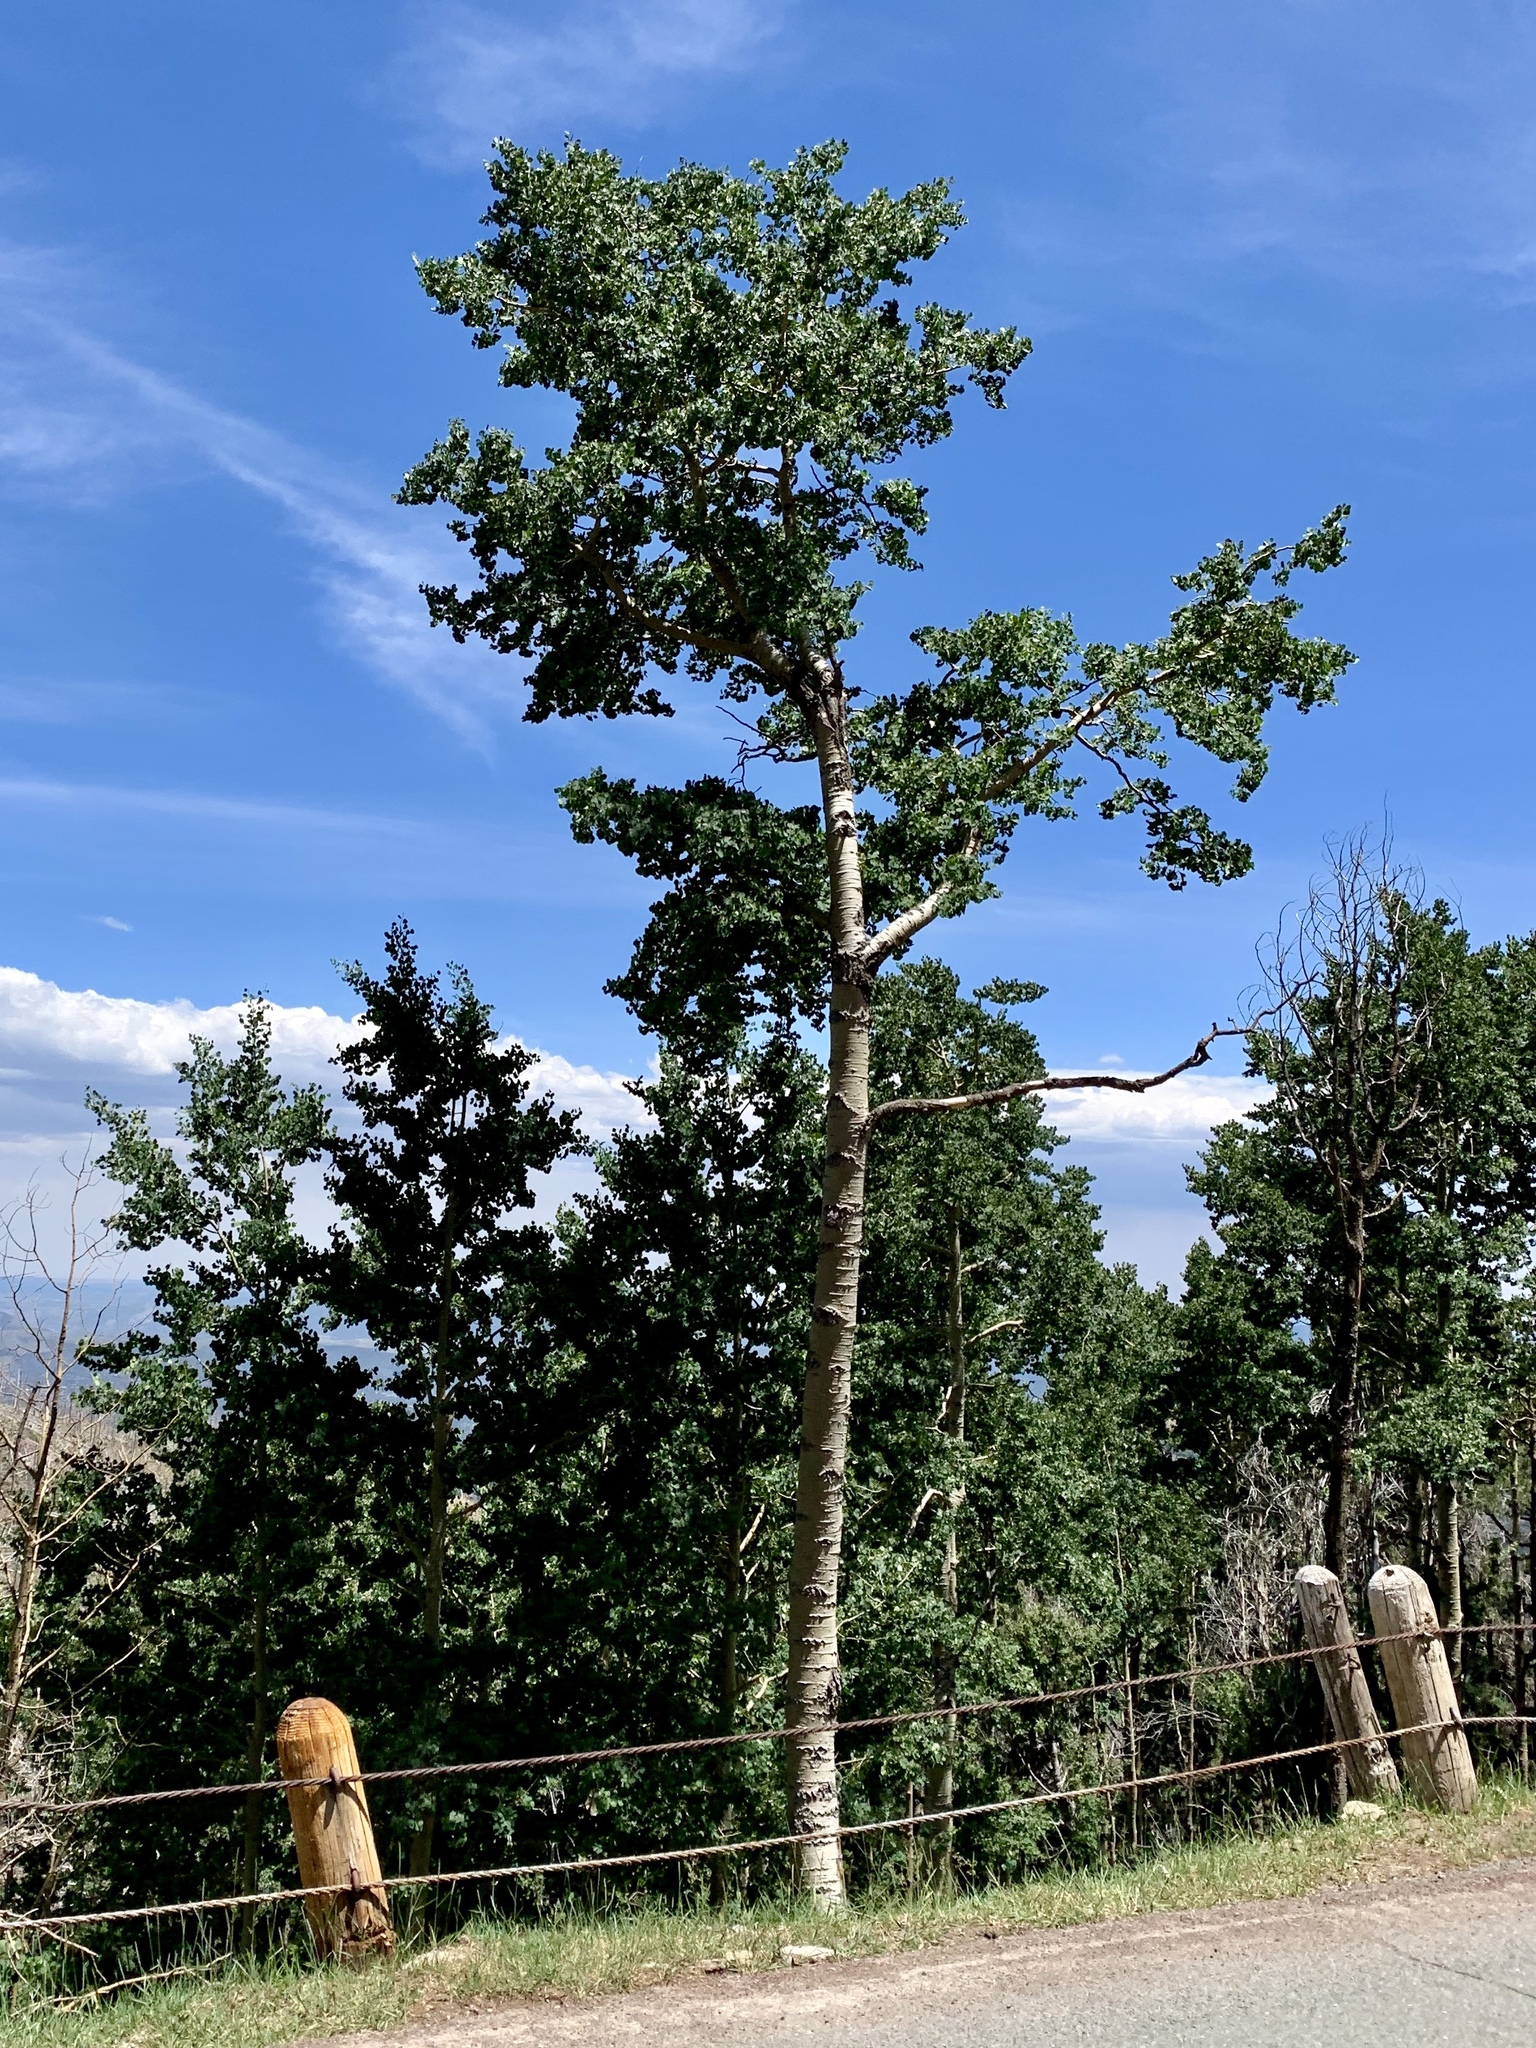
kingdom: Plantae
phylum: Tracheophyta
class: Magnoliopsida
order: Malpighiales
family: Salicaceae
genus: Populus
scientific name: Populus tremuloides
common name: Quaking aspen
